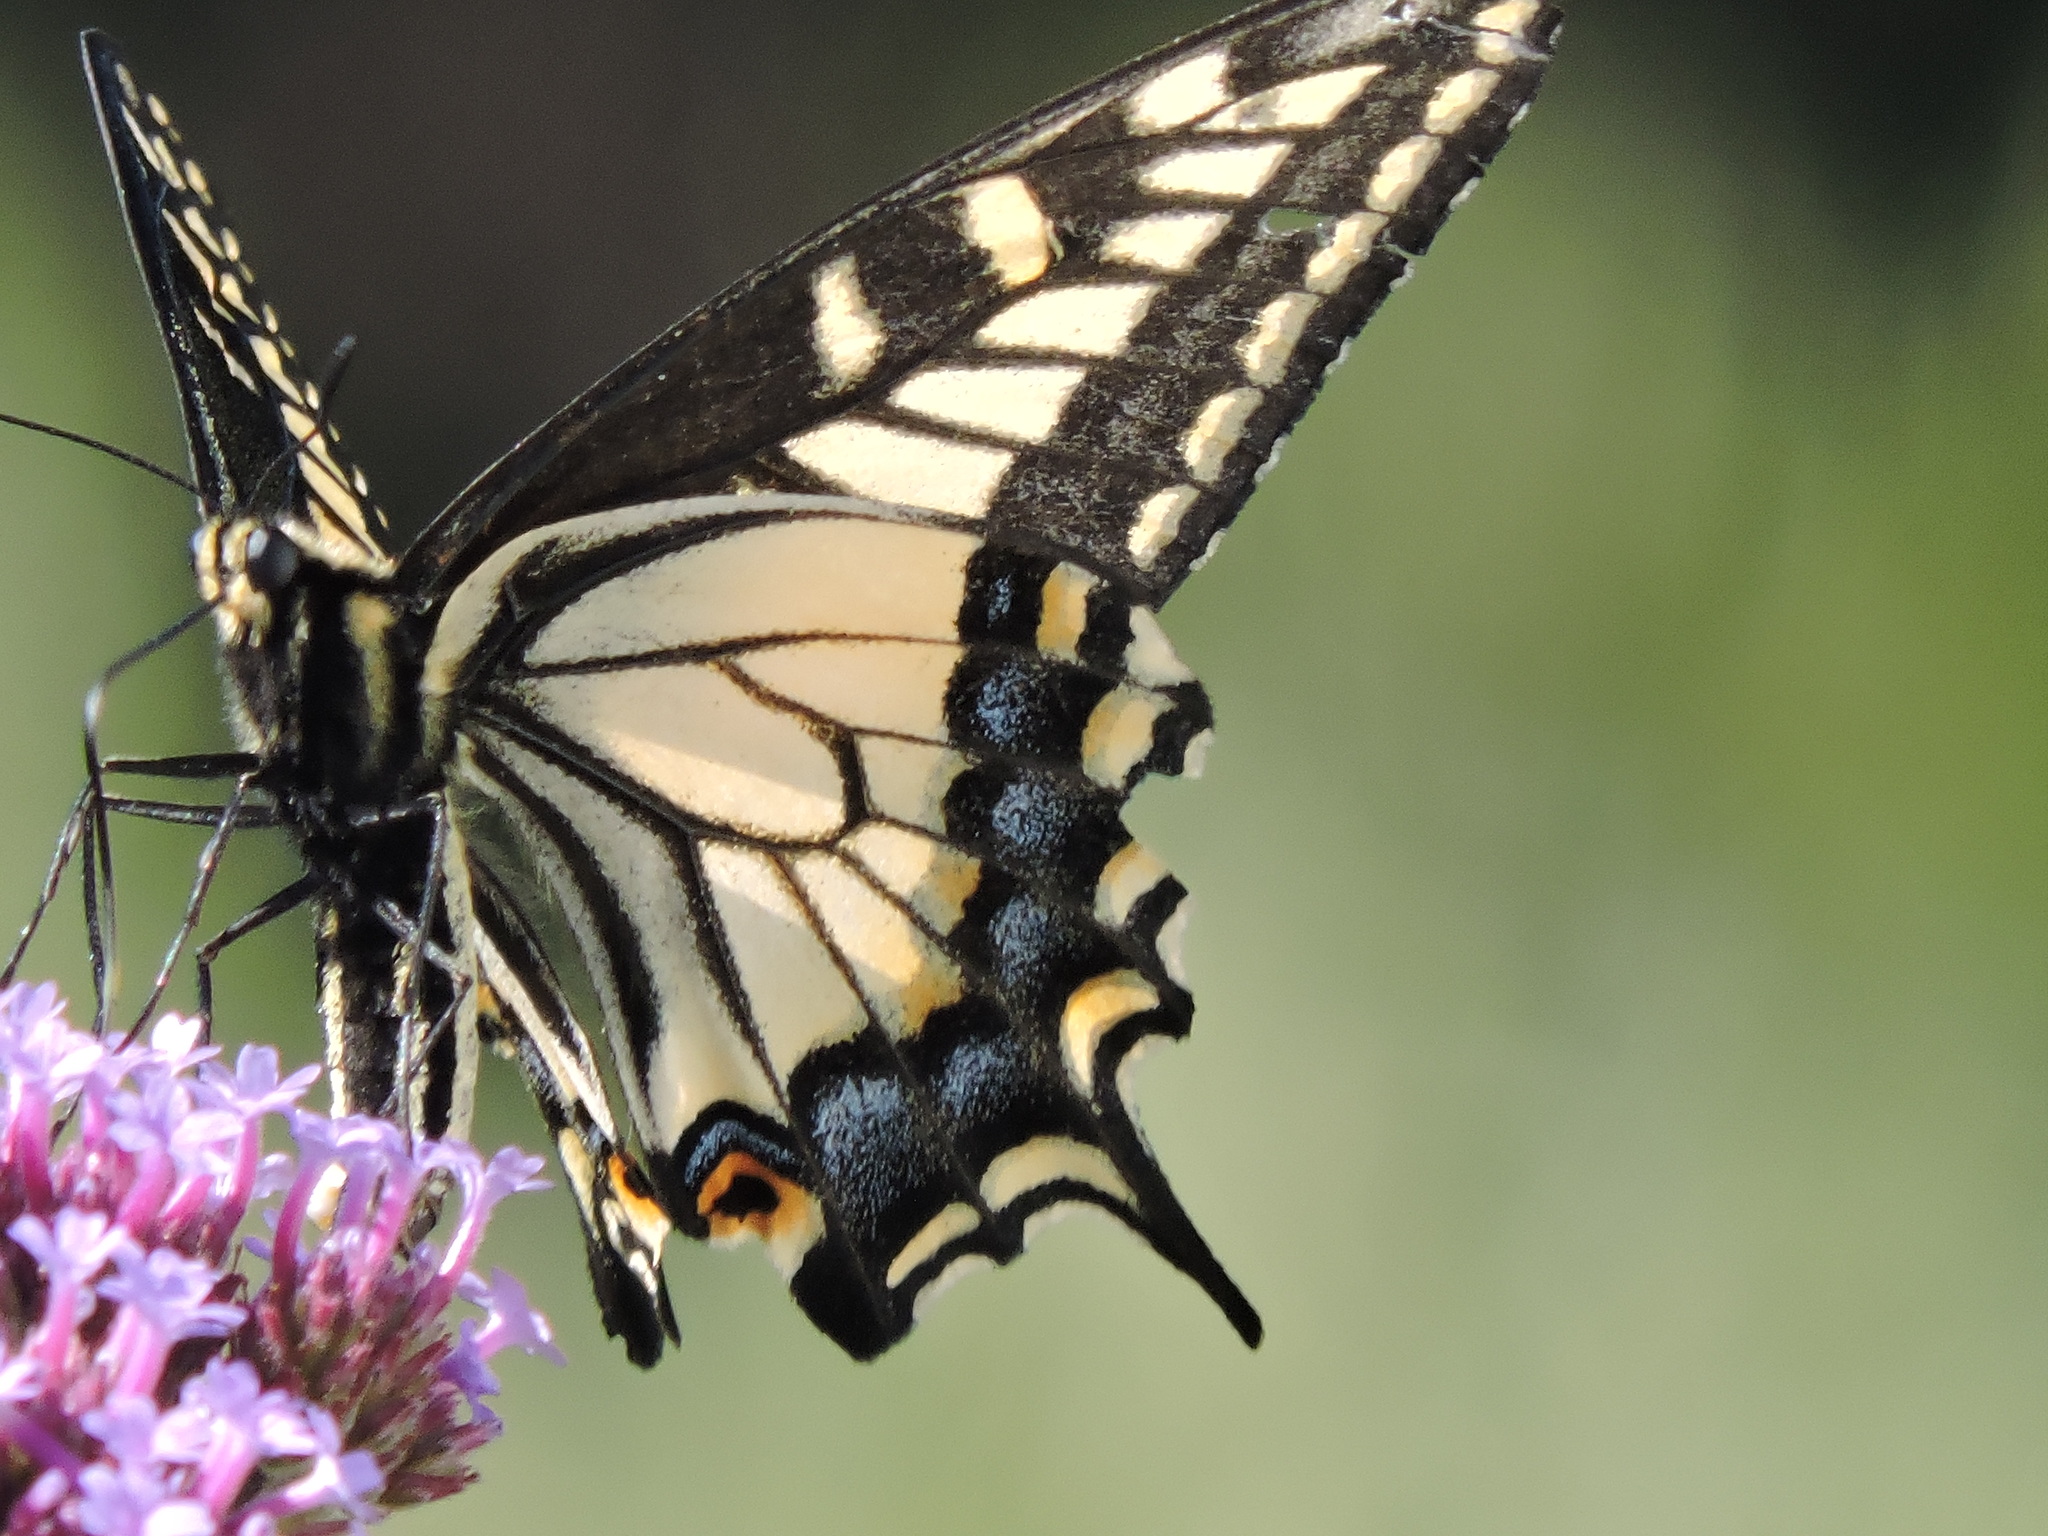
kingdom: Animalia
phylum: Arthropoda
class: Insecta
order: Lepidoptera
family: Papilionidae
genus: Papilio
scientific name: Papilio zelicaon
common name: Anise swallowtail
